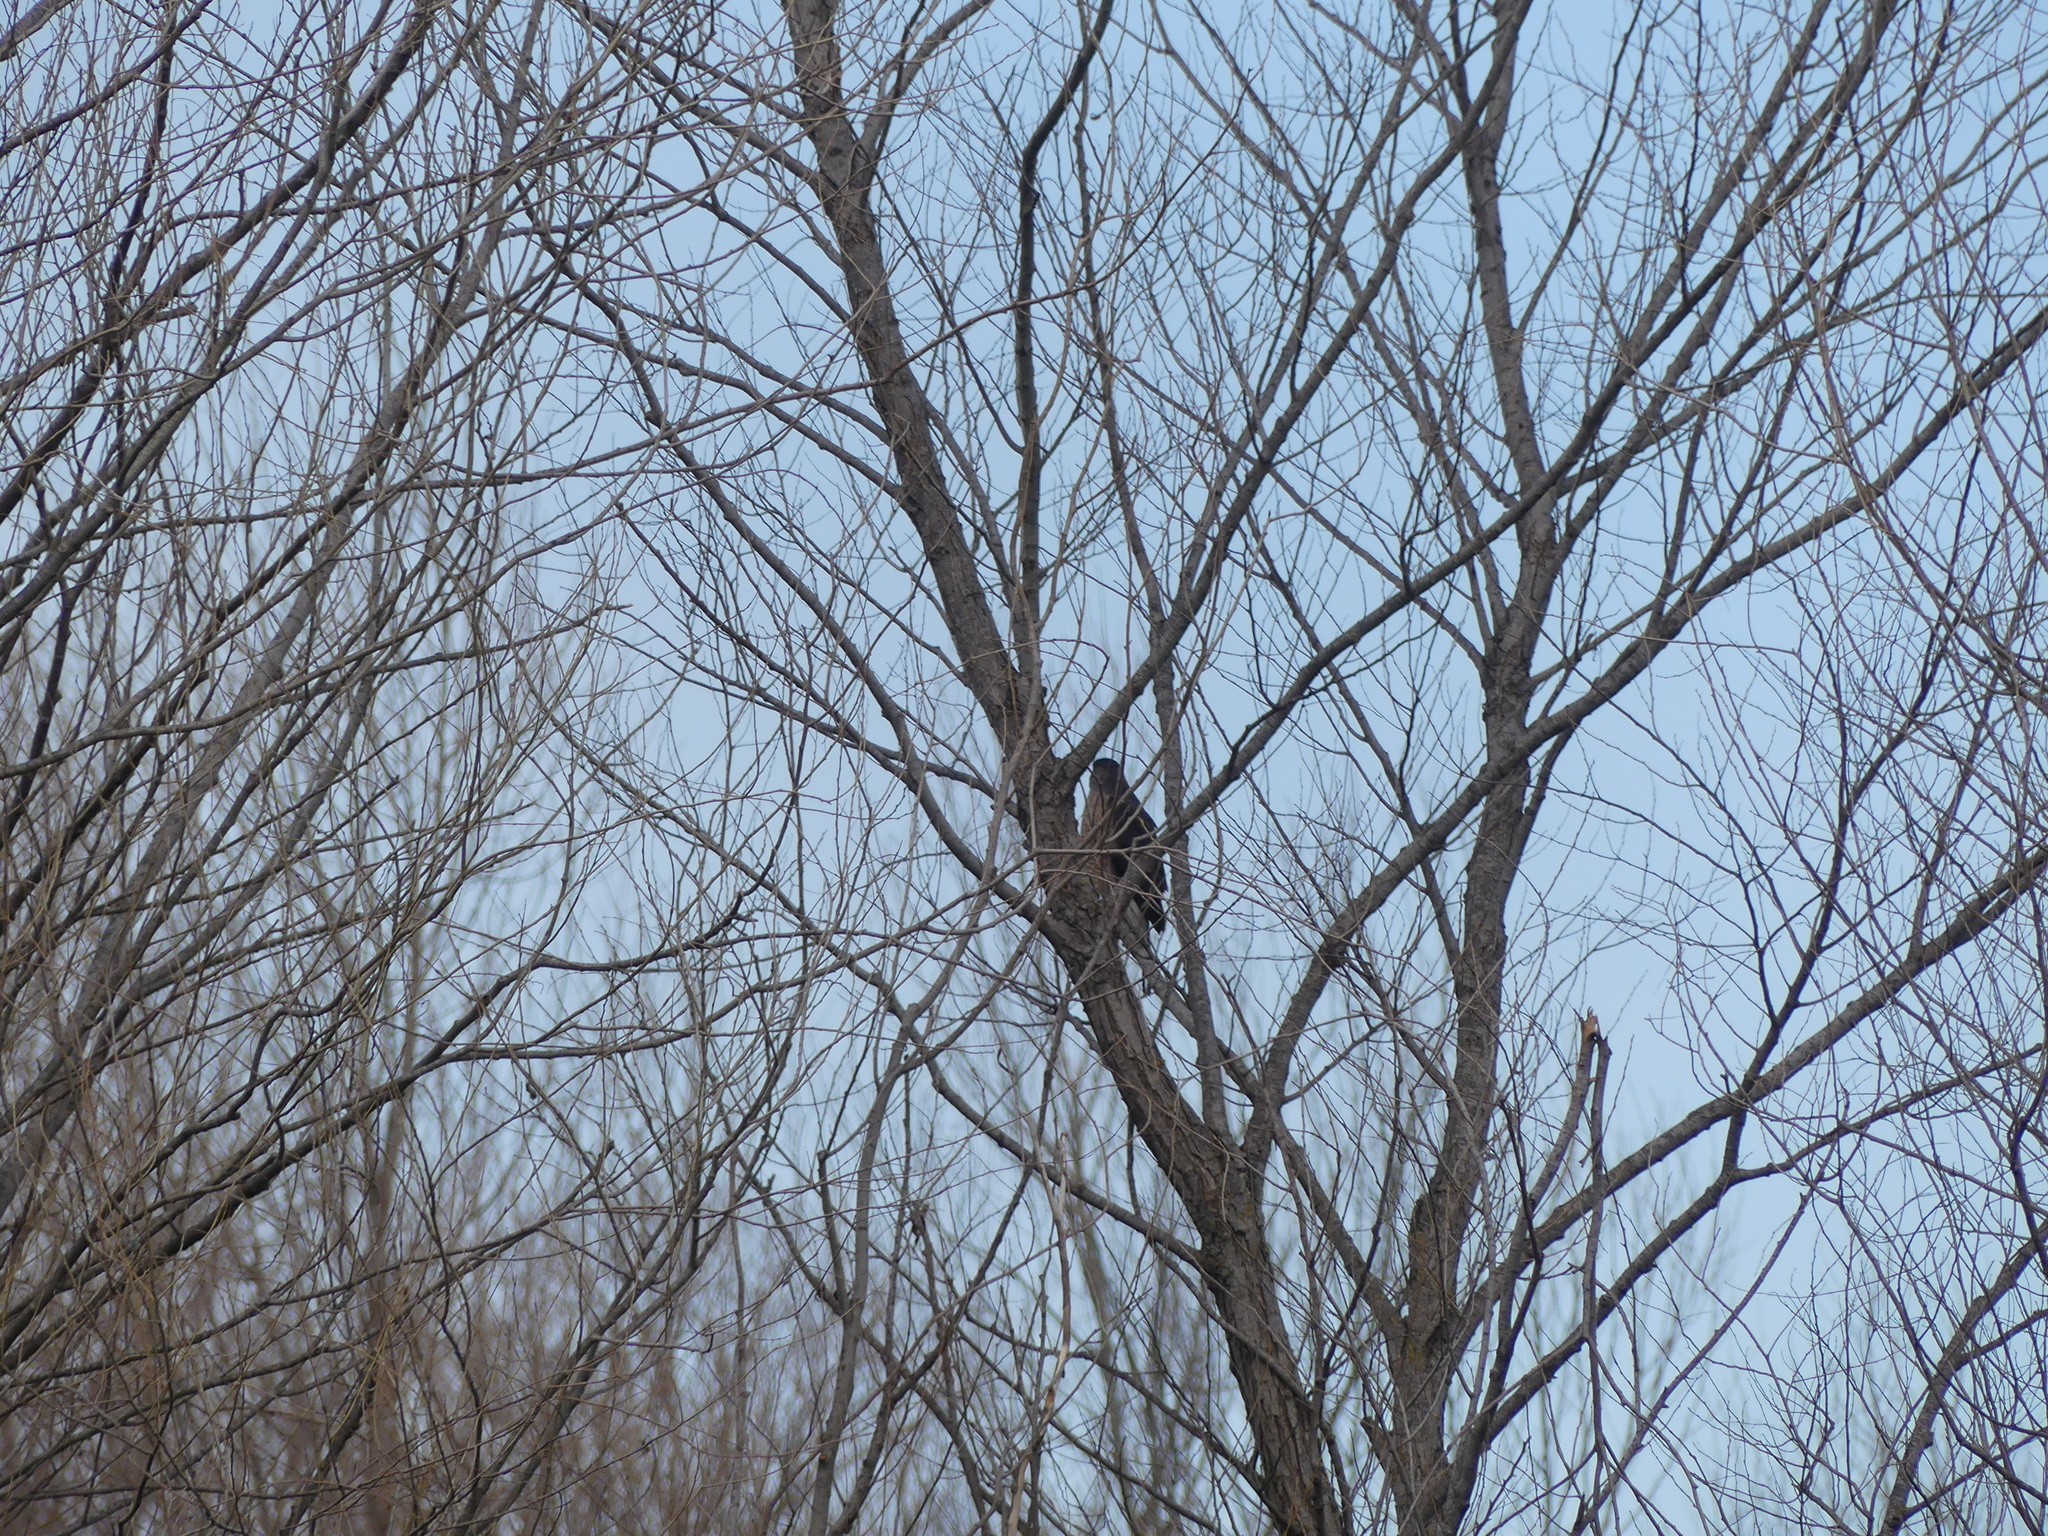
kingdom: Animalia
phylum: Chordata
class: Aves
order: Accipitriformes
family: Accipitridae
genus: Accipiter
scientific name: Accipiter cooperii
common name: Cooper's hawk
